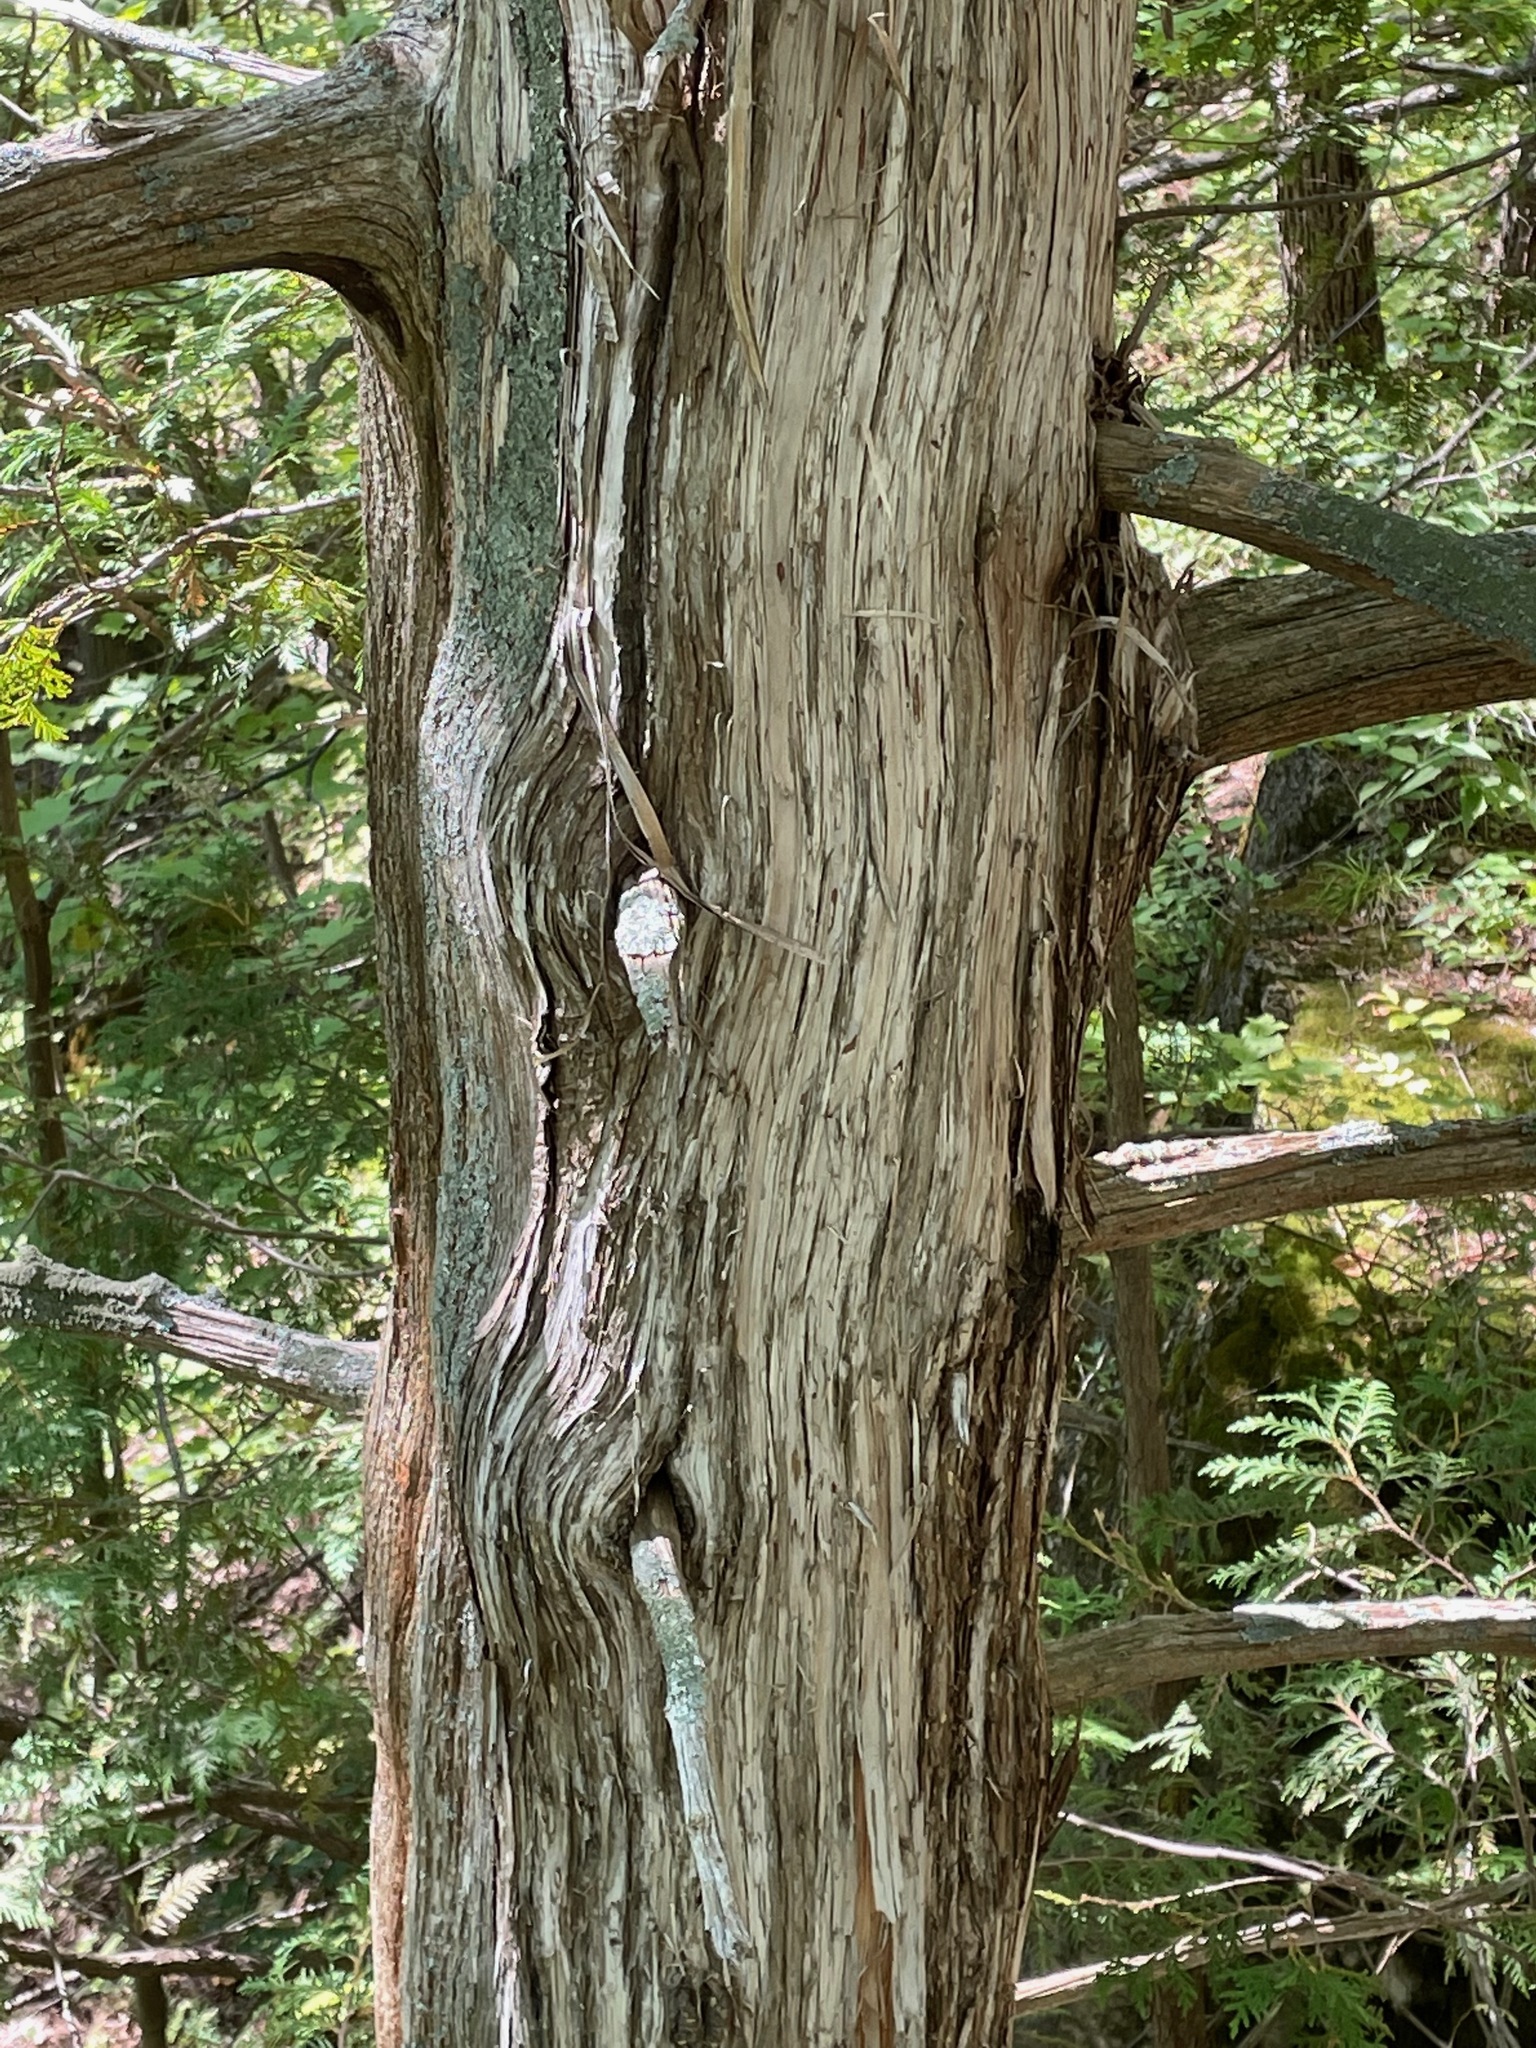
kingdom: Plantae
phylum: Tracheophyta
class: Pinopsida
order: Pinales
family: Cupressaceae
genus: Thuja
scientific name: Thuja occidentalis
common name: Northern white-cedar
